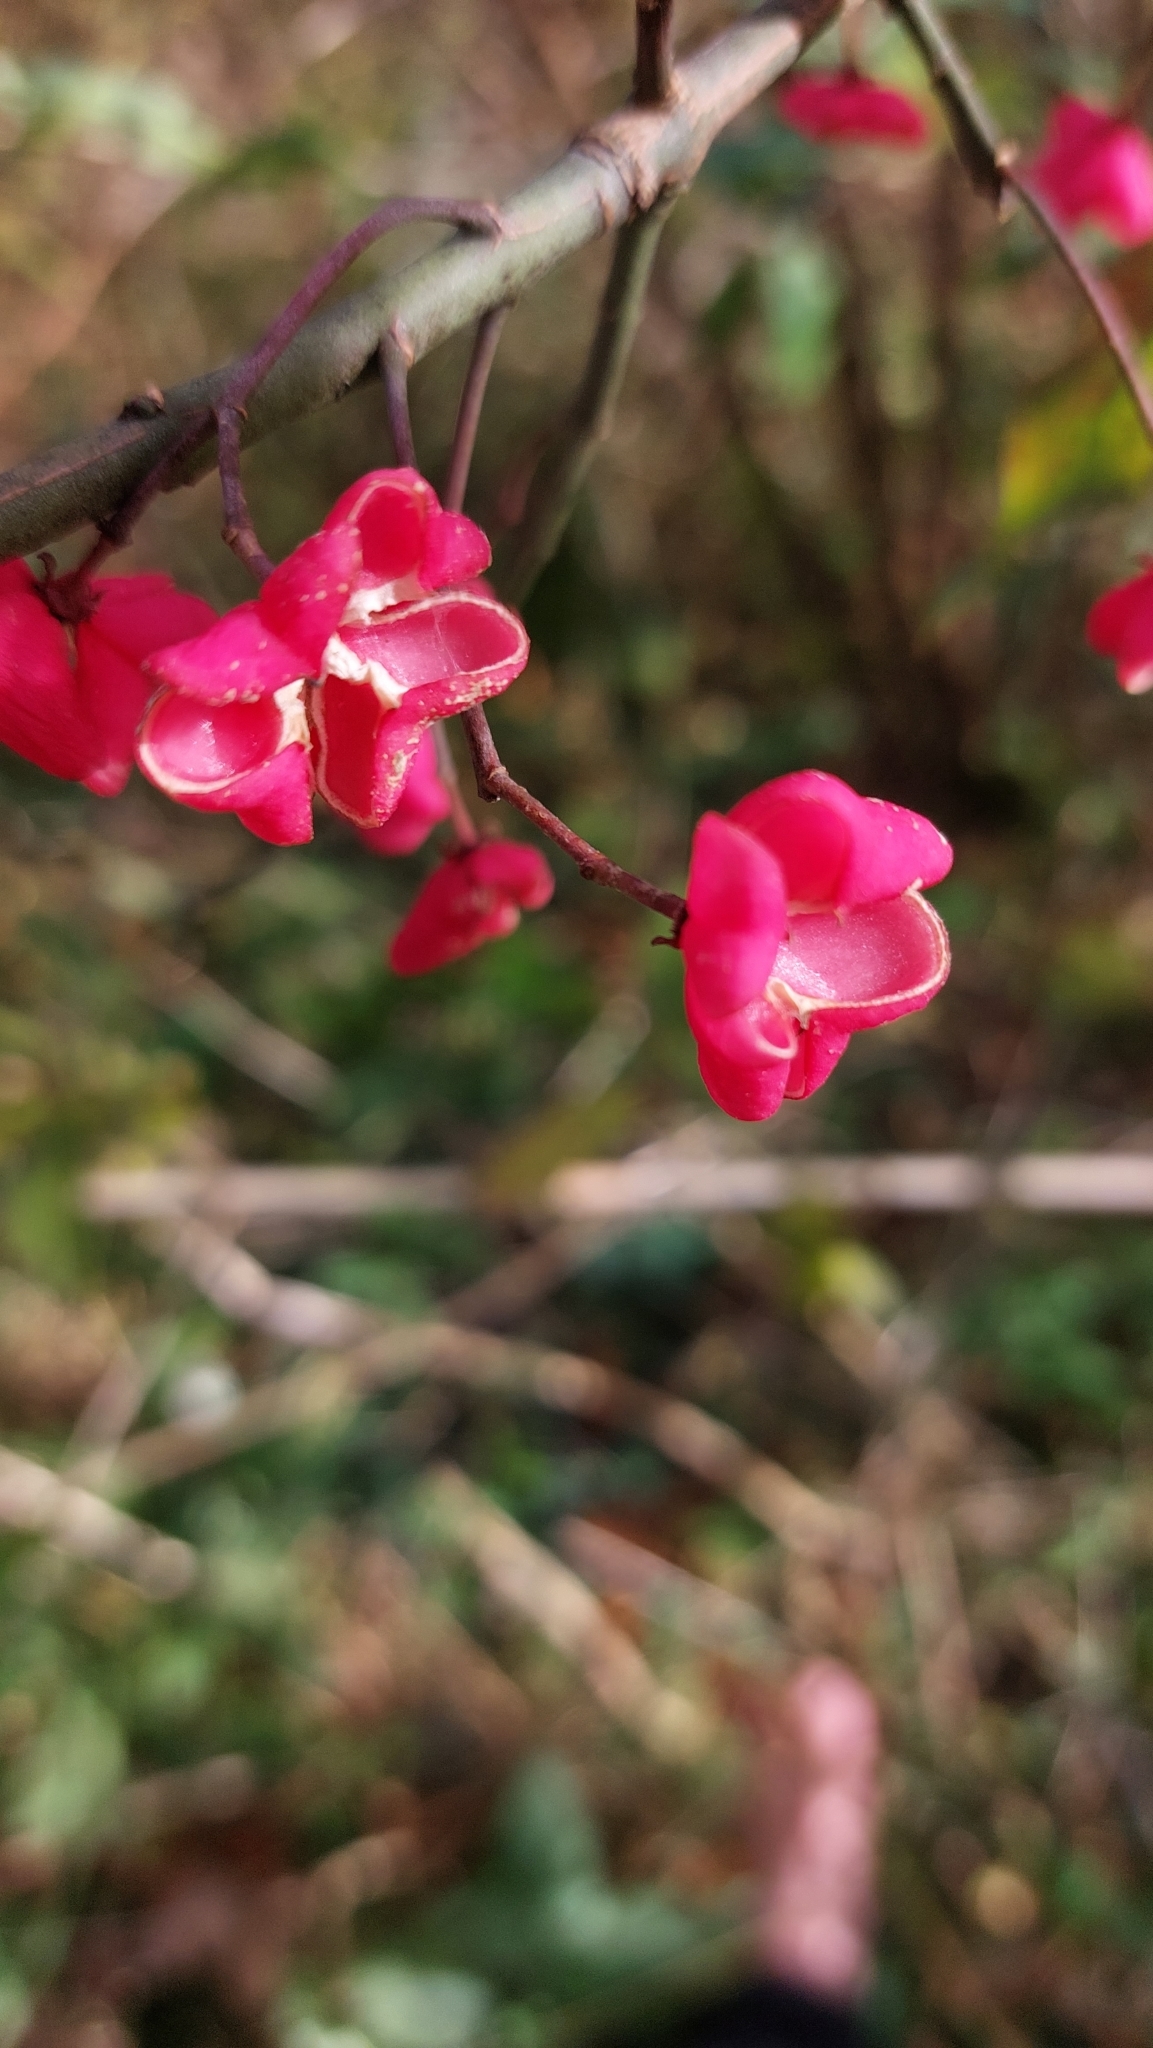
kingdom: Plantae
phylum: Tracheophyta
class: Magnoliopsida
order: Celastrales
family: Celastraceae
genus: Euonymus
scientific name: Euonymus europaeus
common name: Spindle
